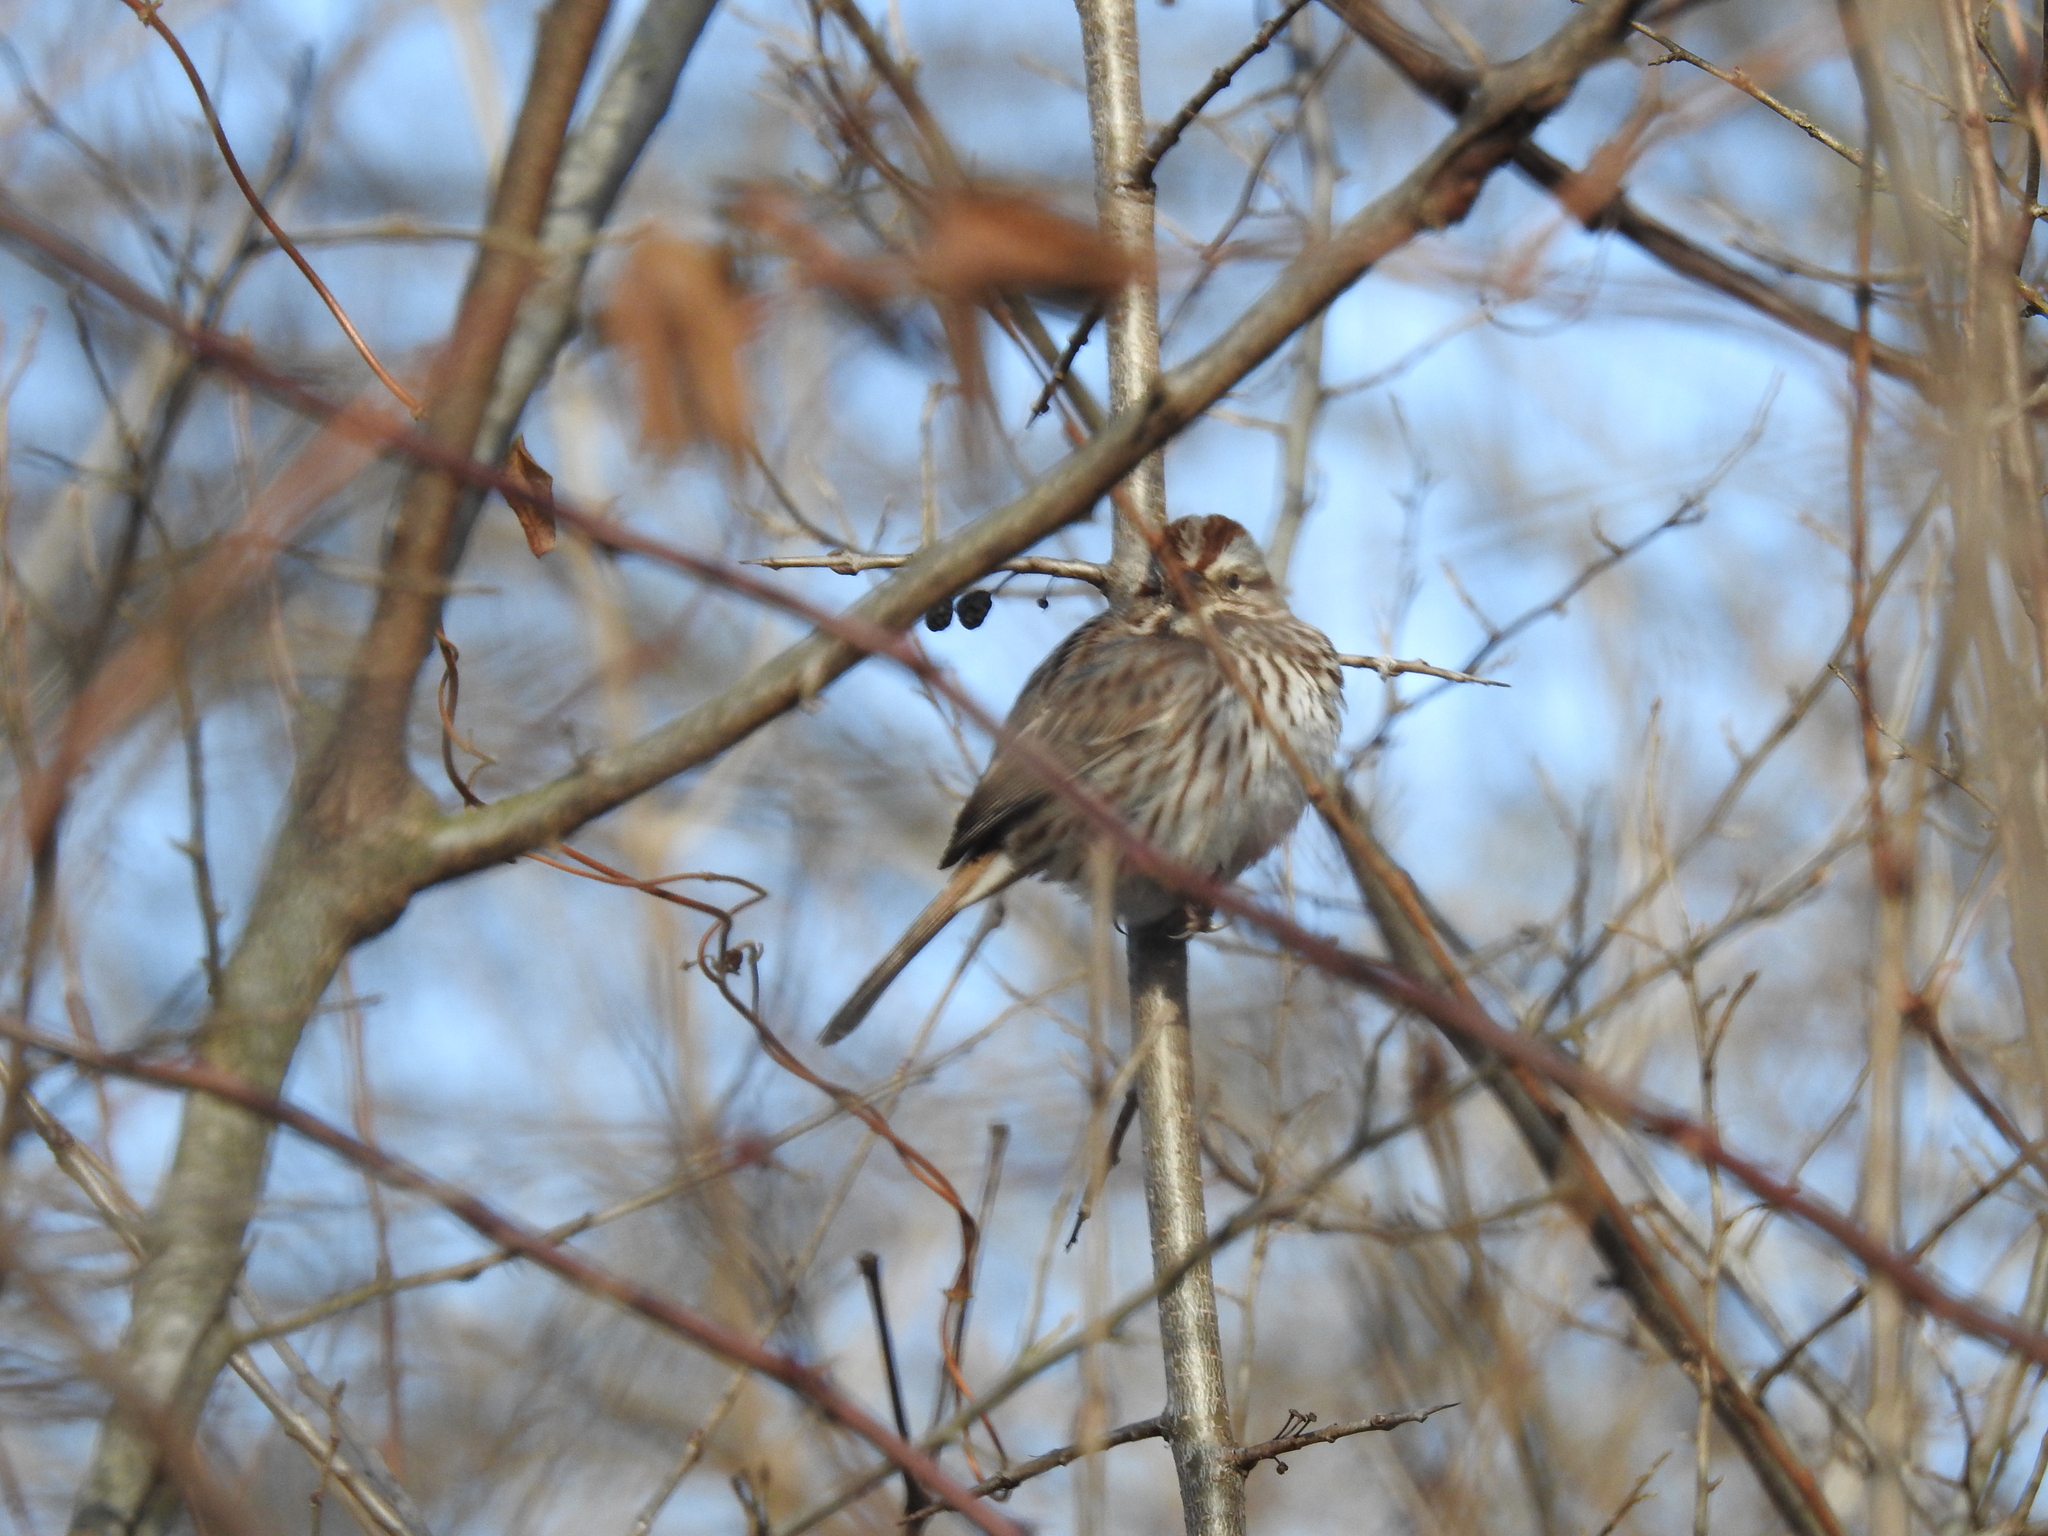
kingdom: Animalia
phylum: Chordata
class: Aves
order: Passeriformes
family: Passerellidae
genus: Melospiza
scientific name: Melospiza melodia
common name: Song sparrow
